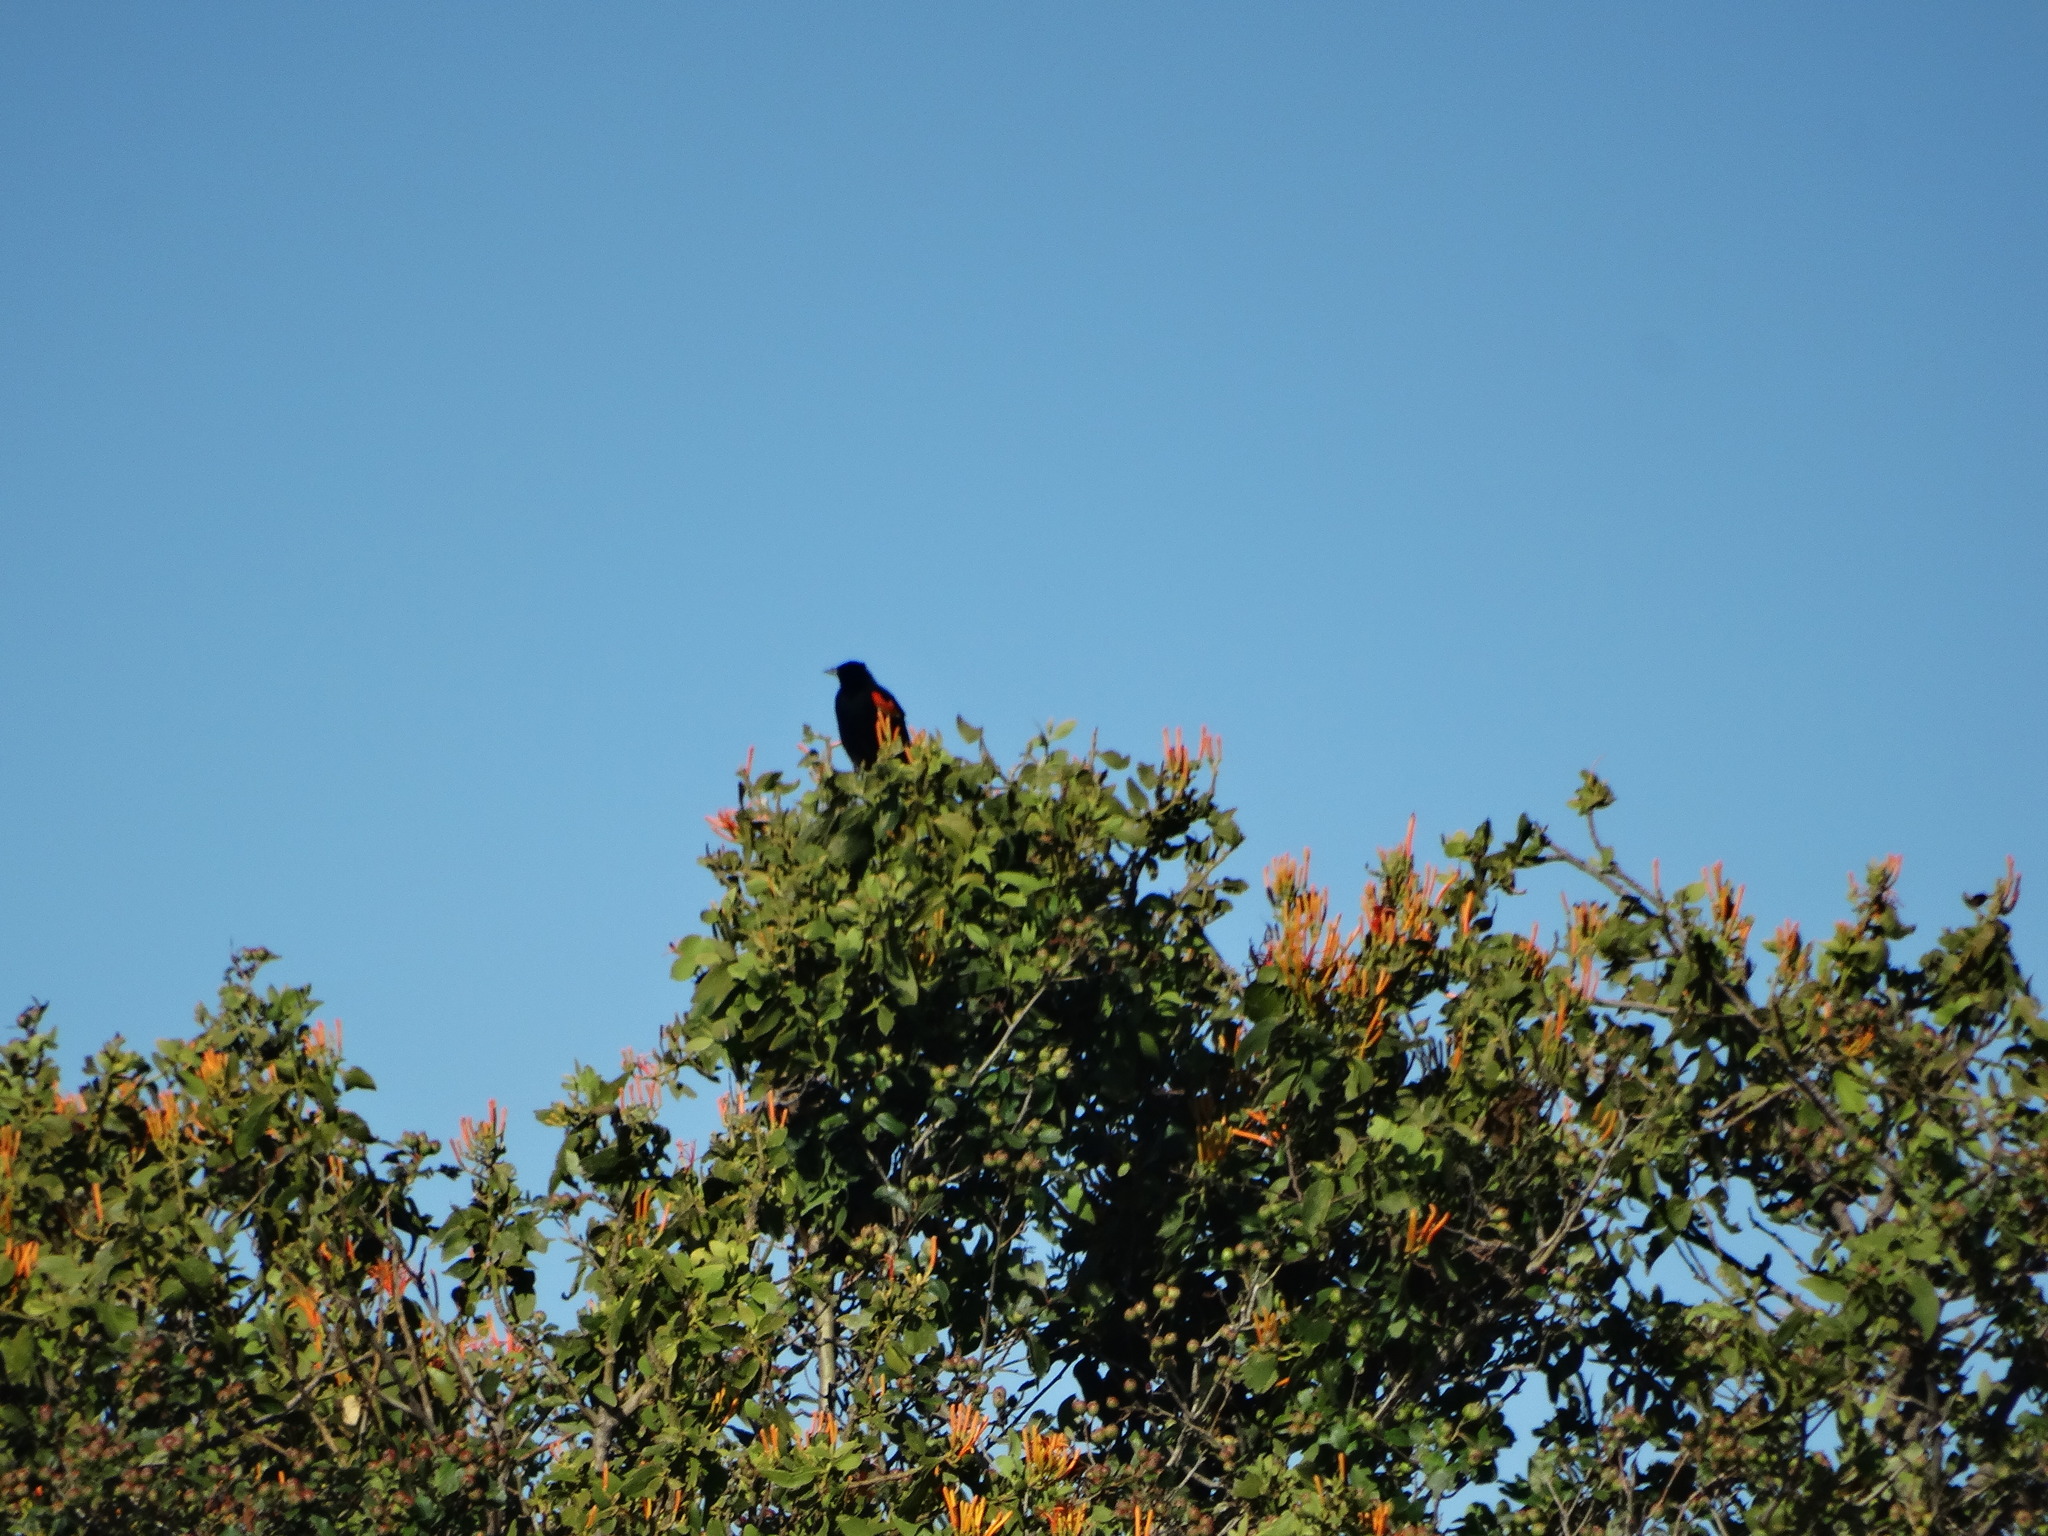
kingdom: Animalia
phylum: Chordata
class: Aves
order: Passeriformes
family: Icteridae
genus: Agelaius
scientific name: Agelaius phoeniceus
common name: Red-winged blackbird
